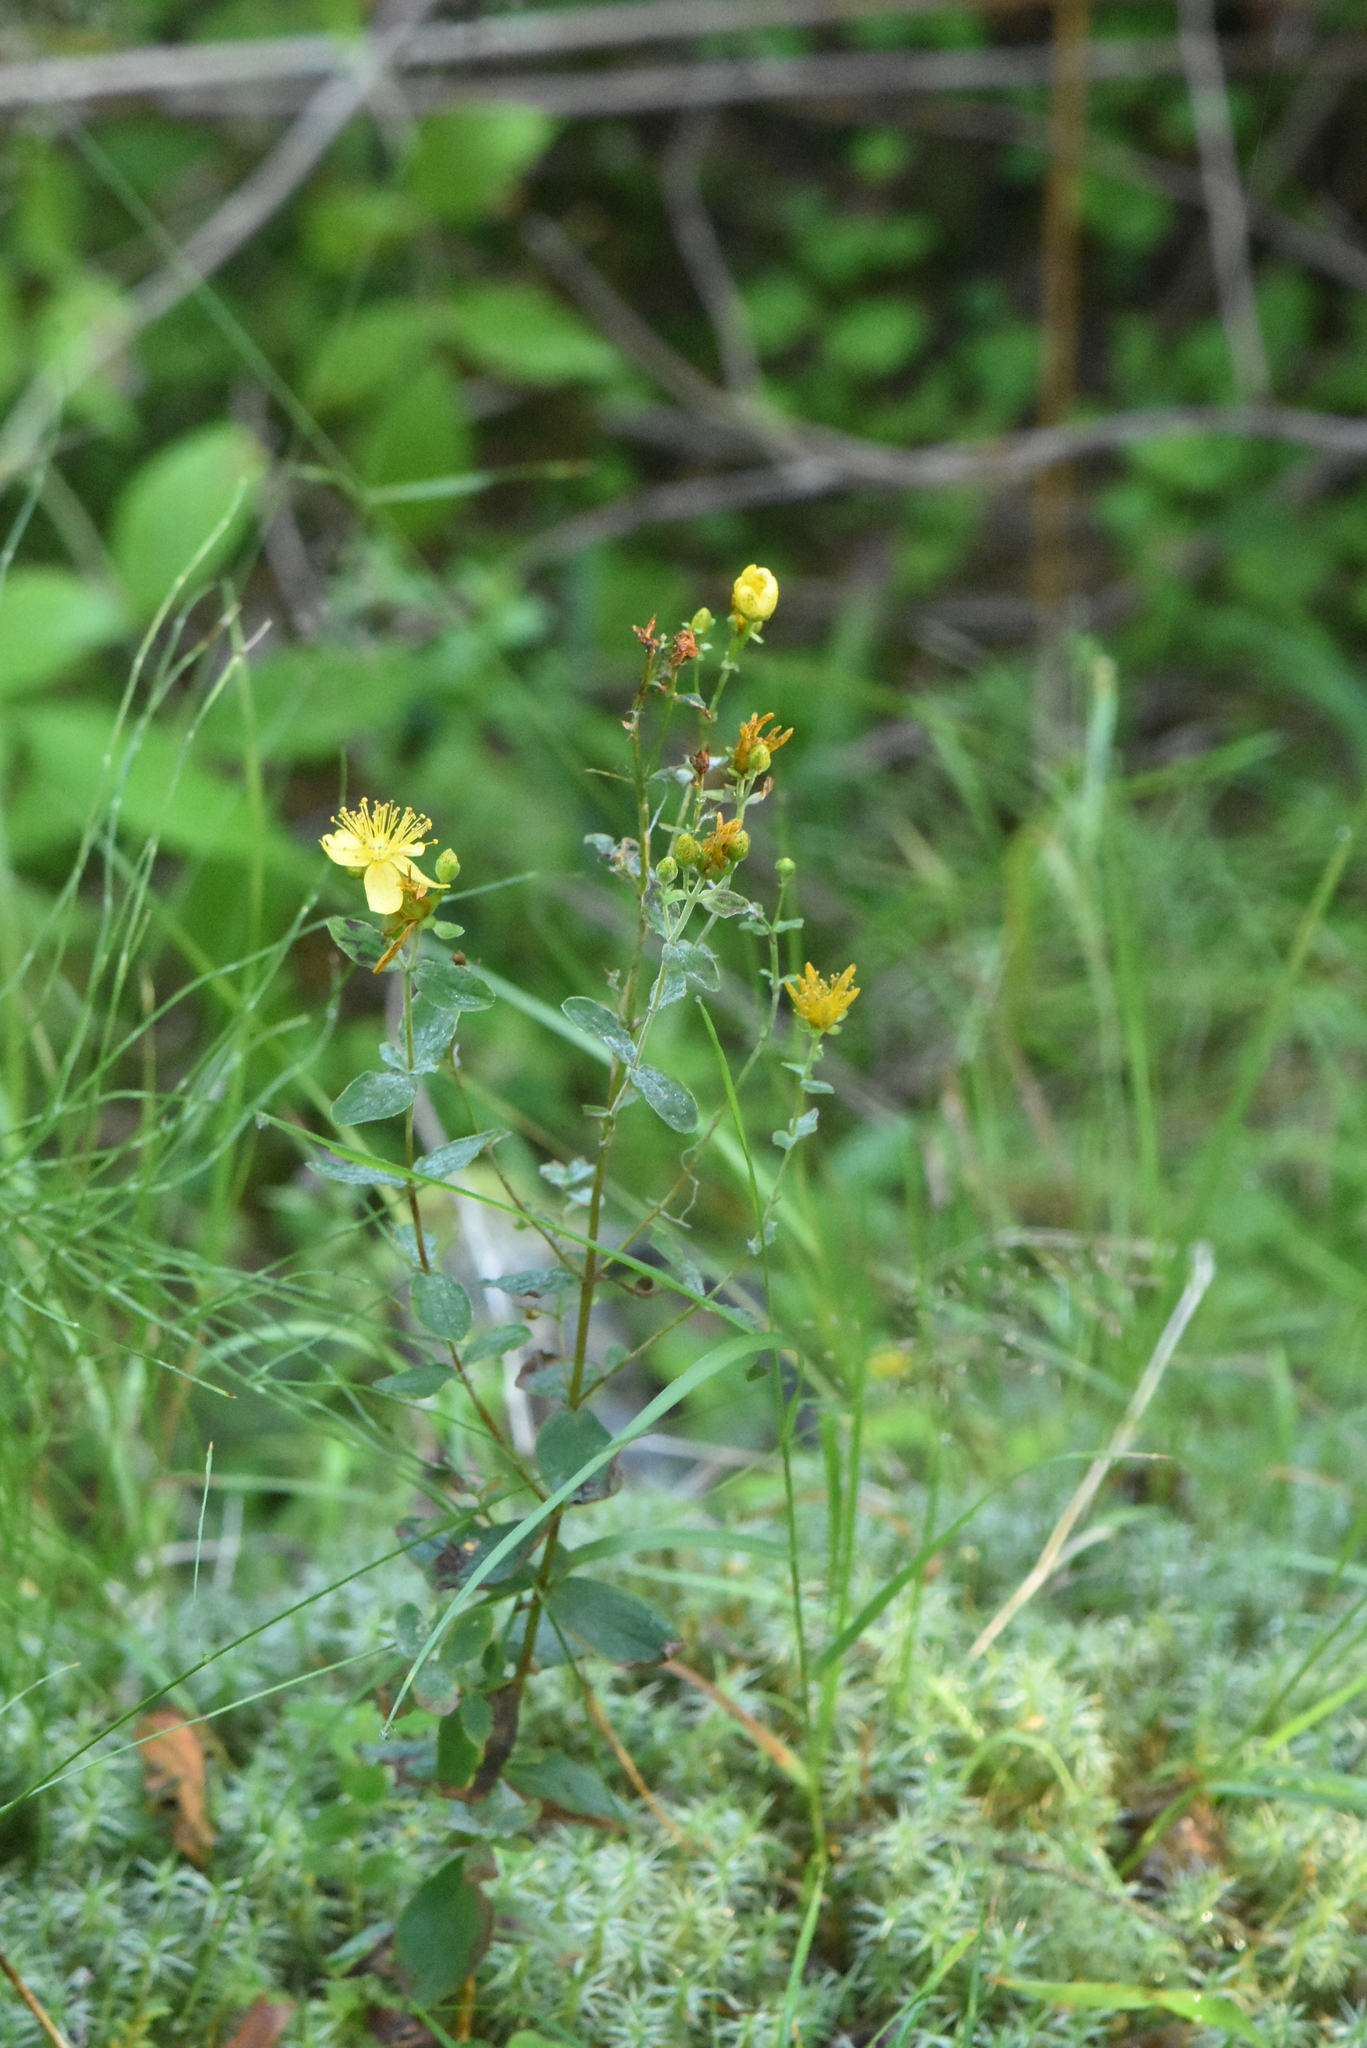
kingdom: Plantae
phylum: Tracheophyta
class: Magnoliopsida
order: Malpighiales
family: Hypericaceae
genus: Hypericum
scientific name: Hypericum maculatum
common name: Imperforate st. john's-wort
